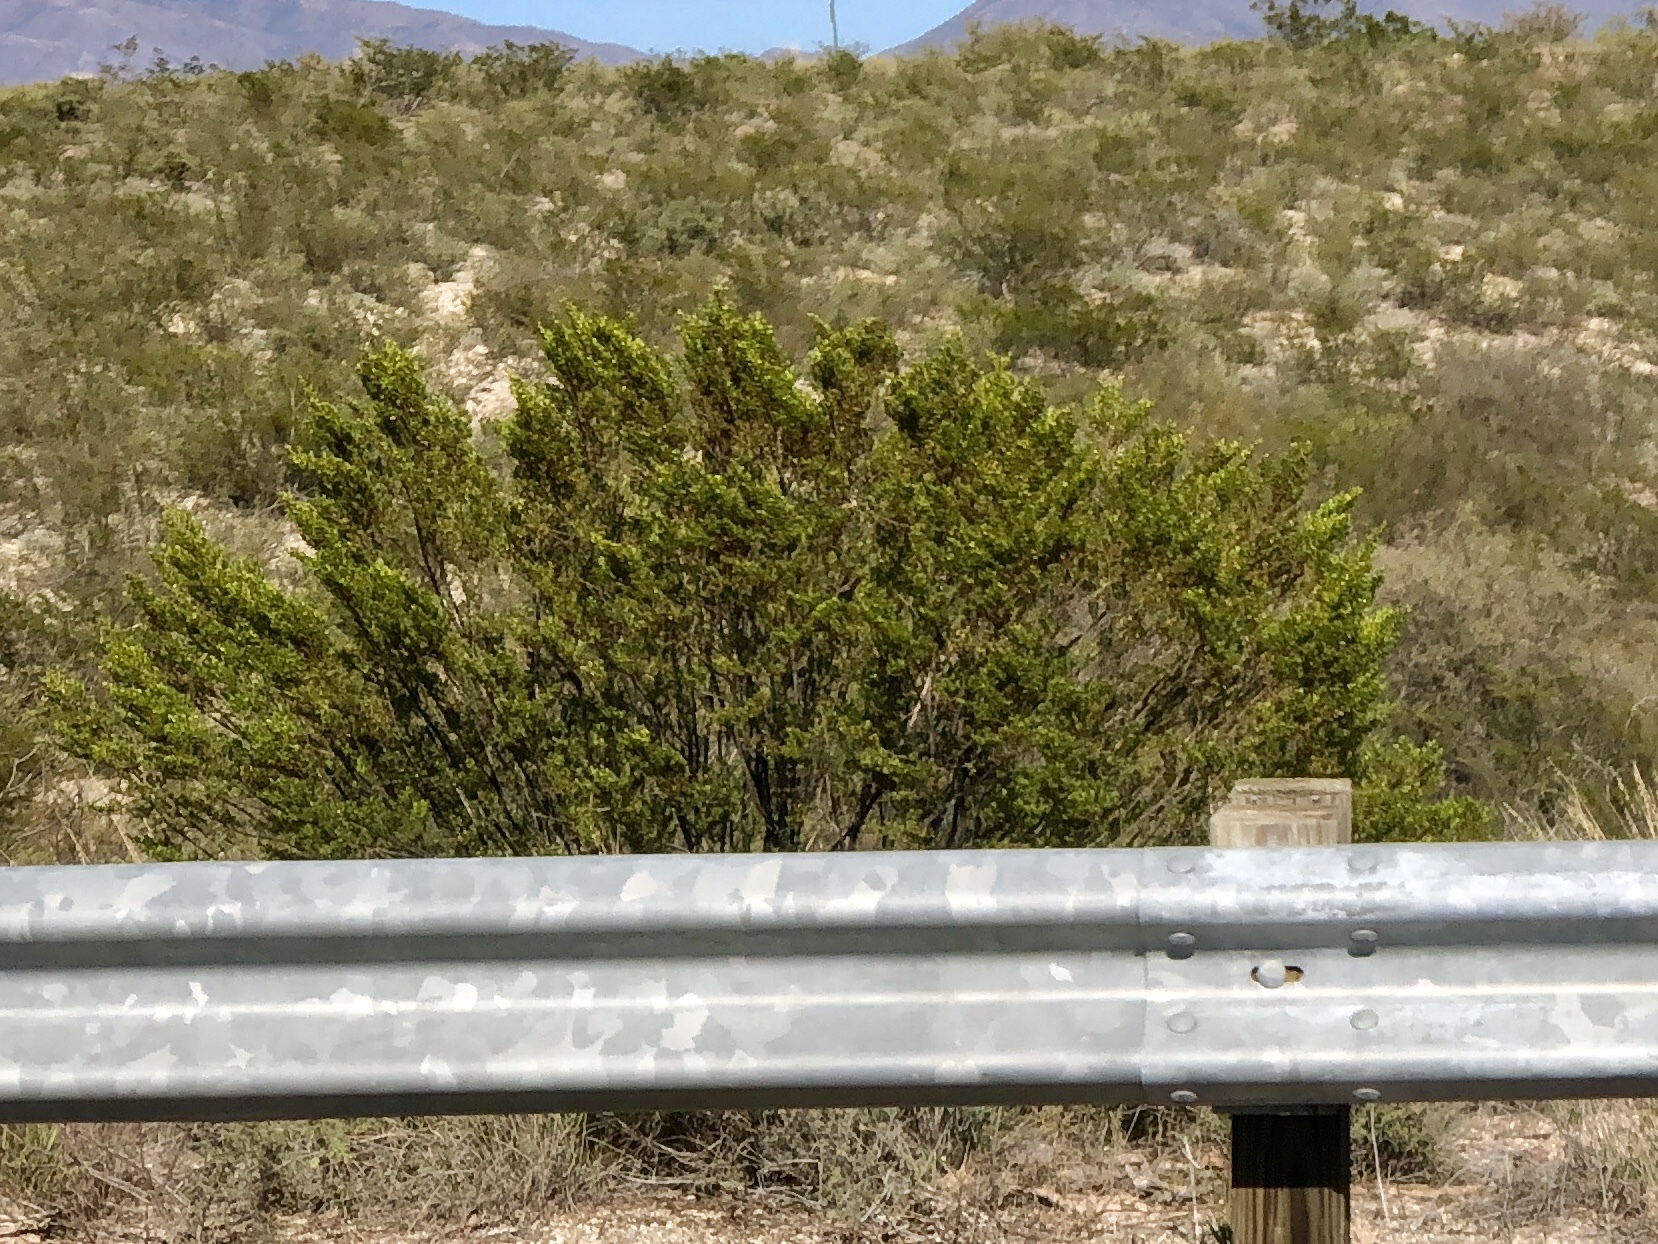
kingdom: Plantae
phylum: Tracheophyta
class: Magnoliopsida
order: Zygophyllales
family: Zygophyllaceae
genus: Larrea
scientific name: Larrea tridentata
